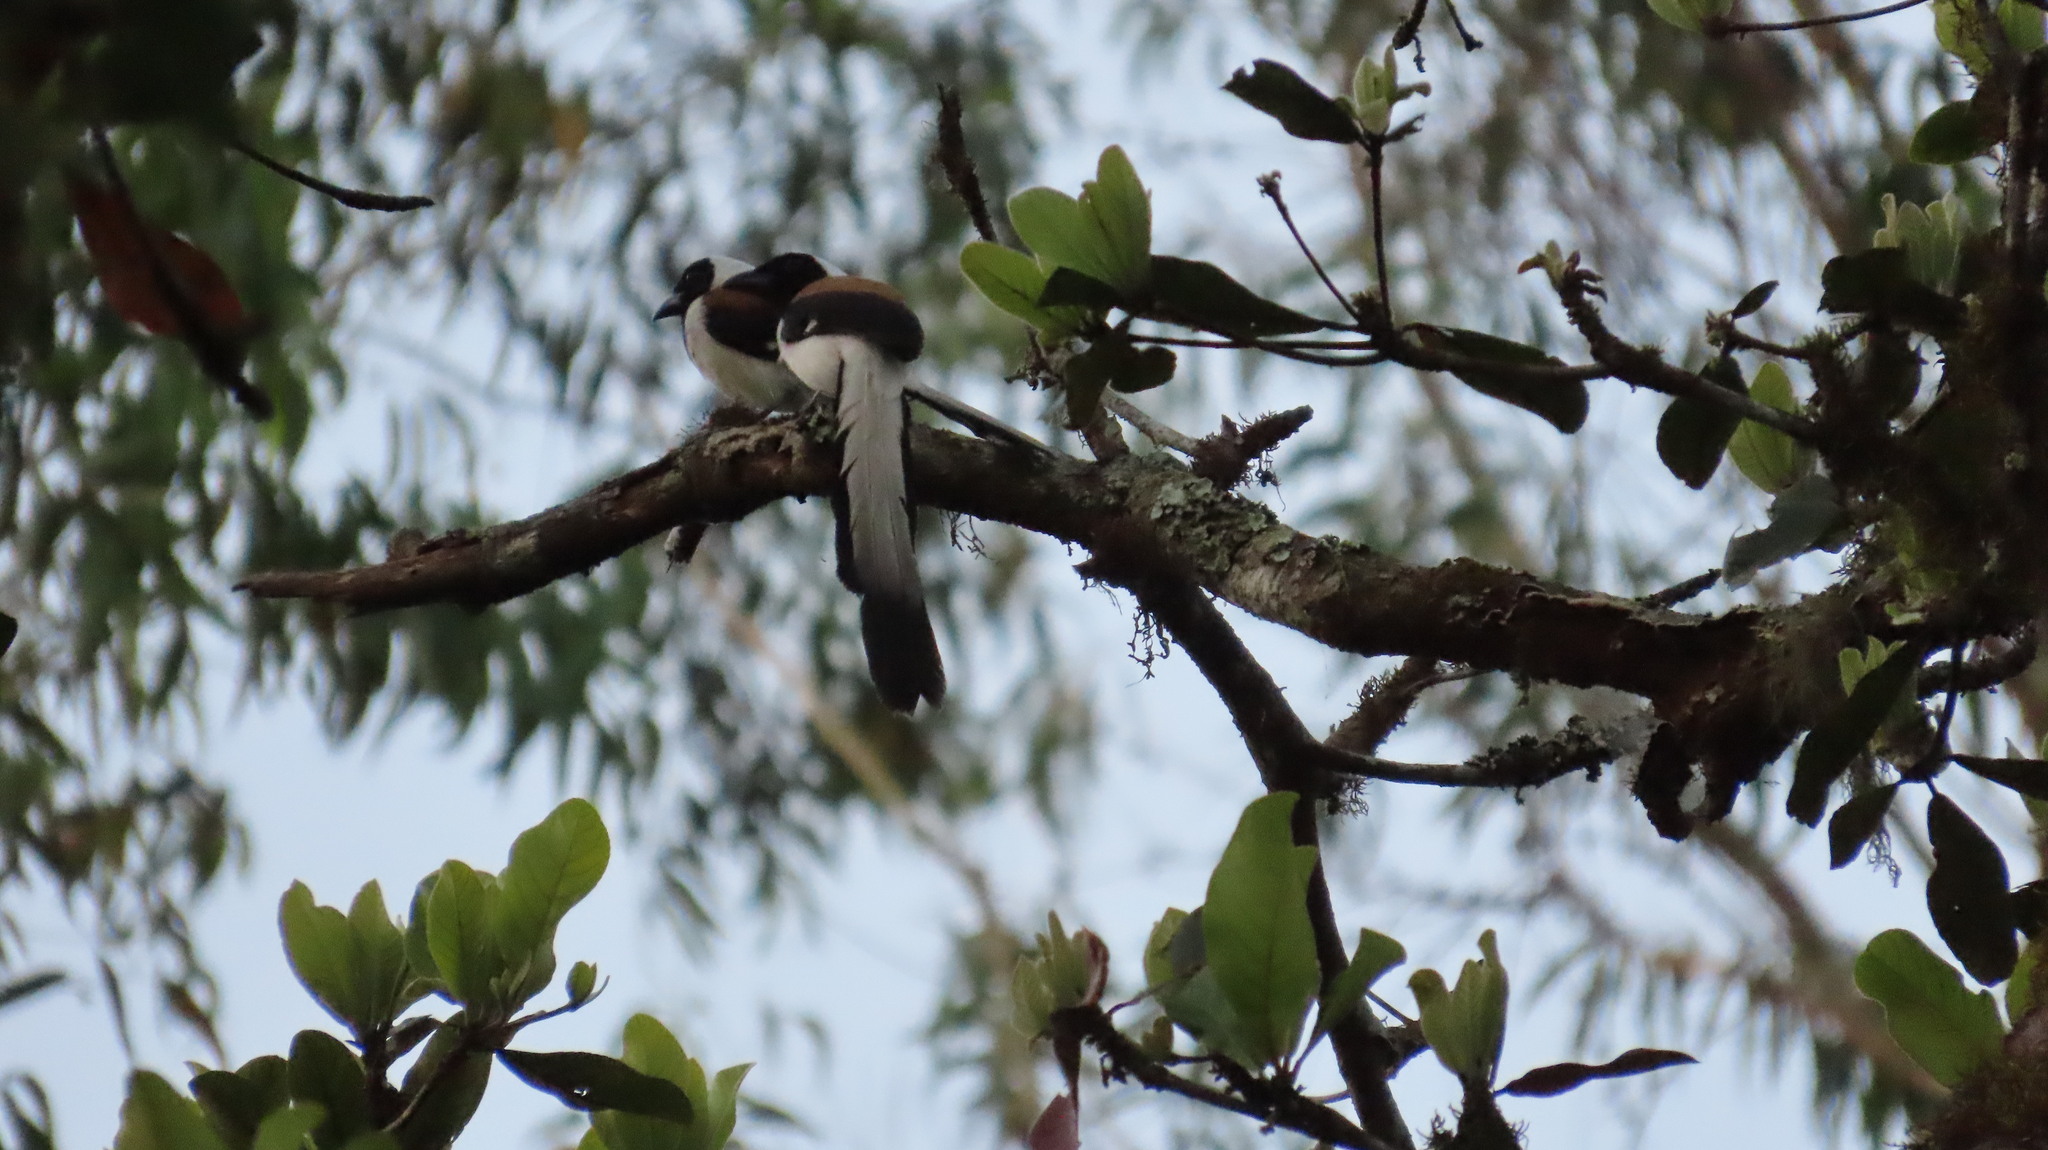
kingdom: Animalia
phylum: Chordata
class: Aves
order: Passeriformes
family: Corvidae
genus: Dendrocitta
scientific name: Dendrocitta leucogastra
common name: White-bellied treepie
